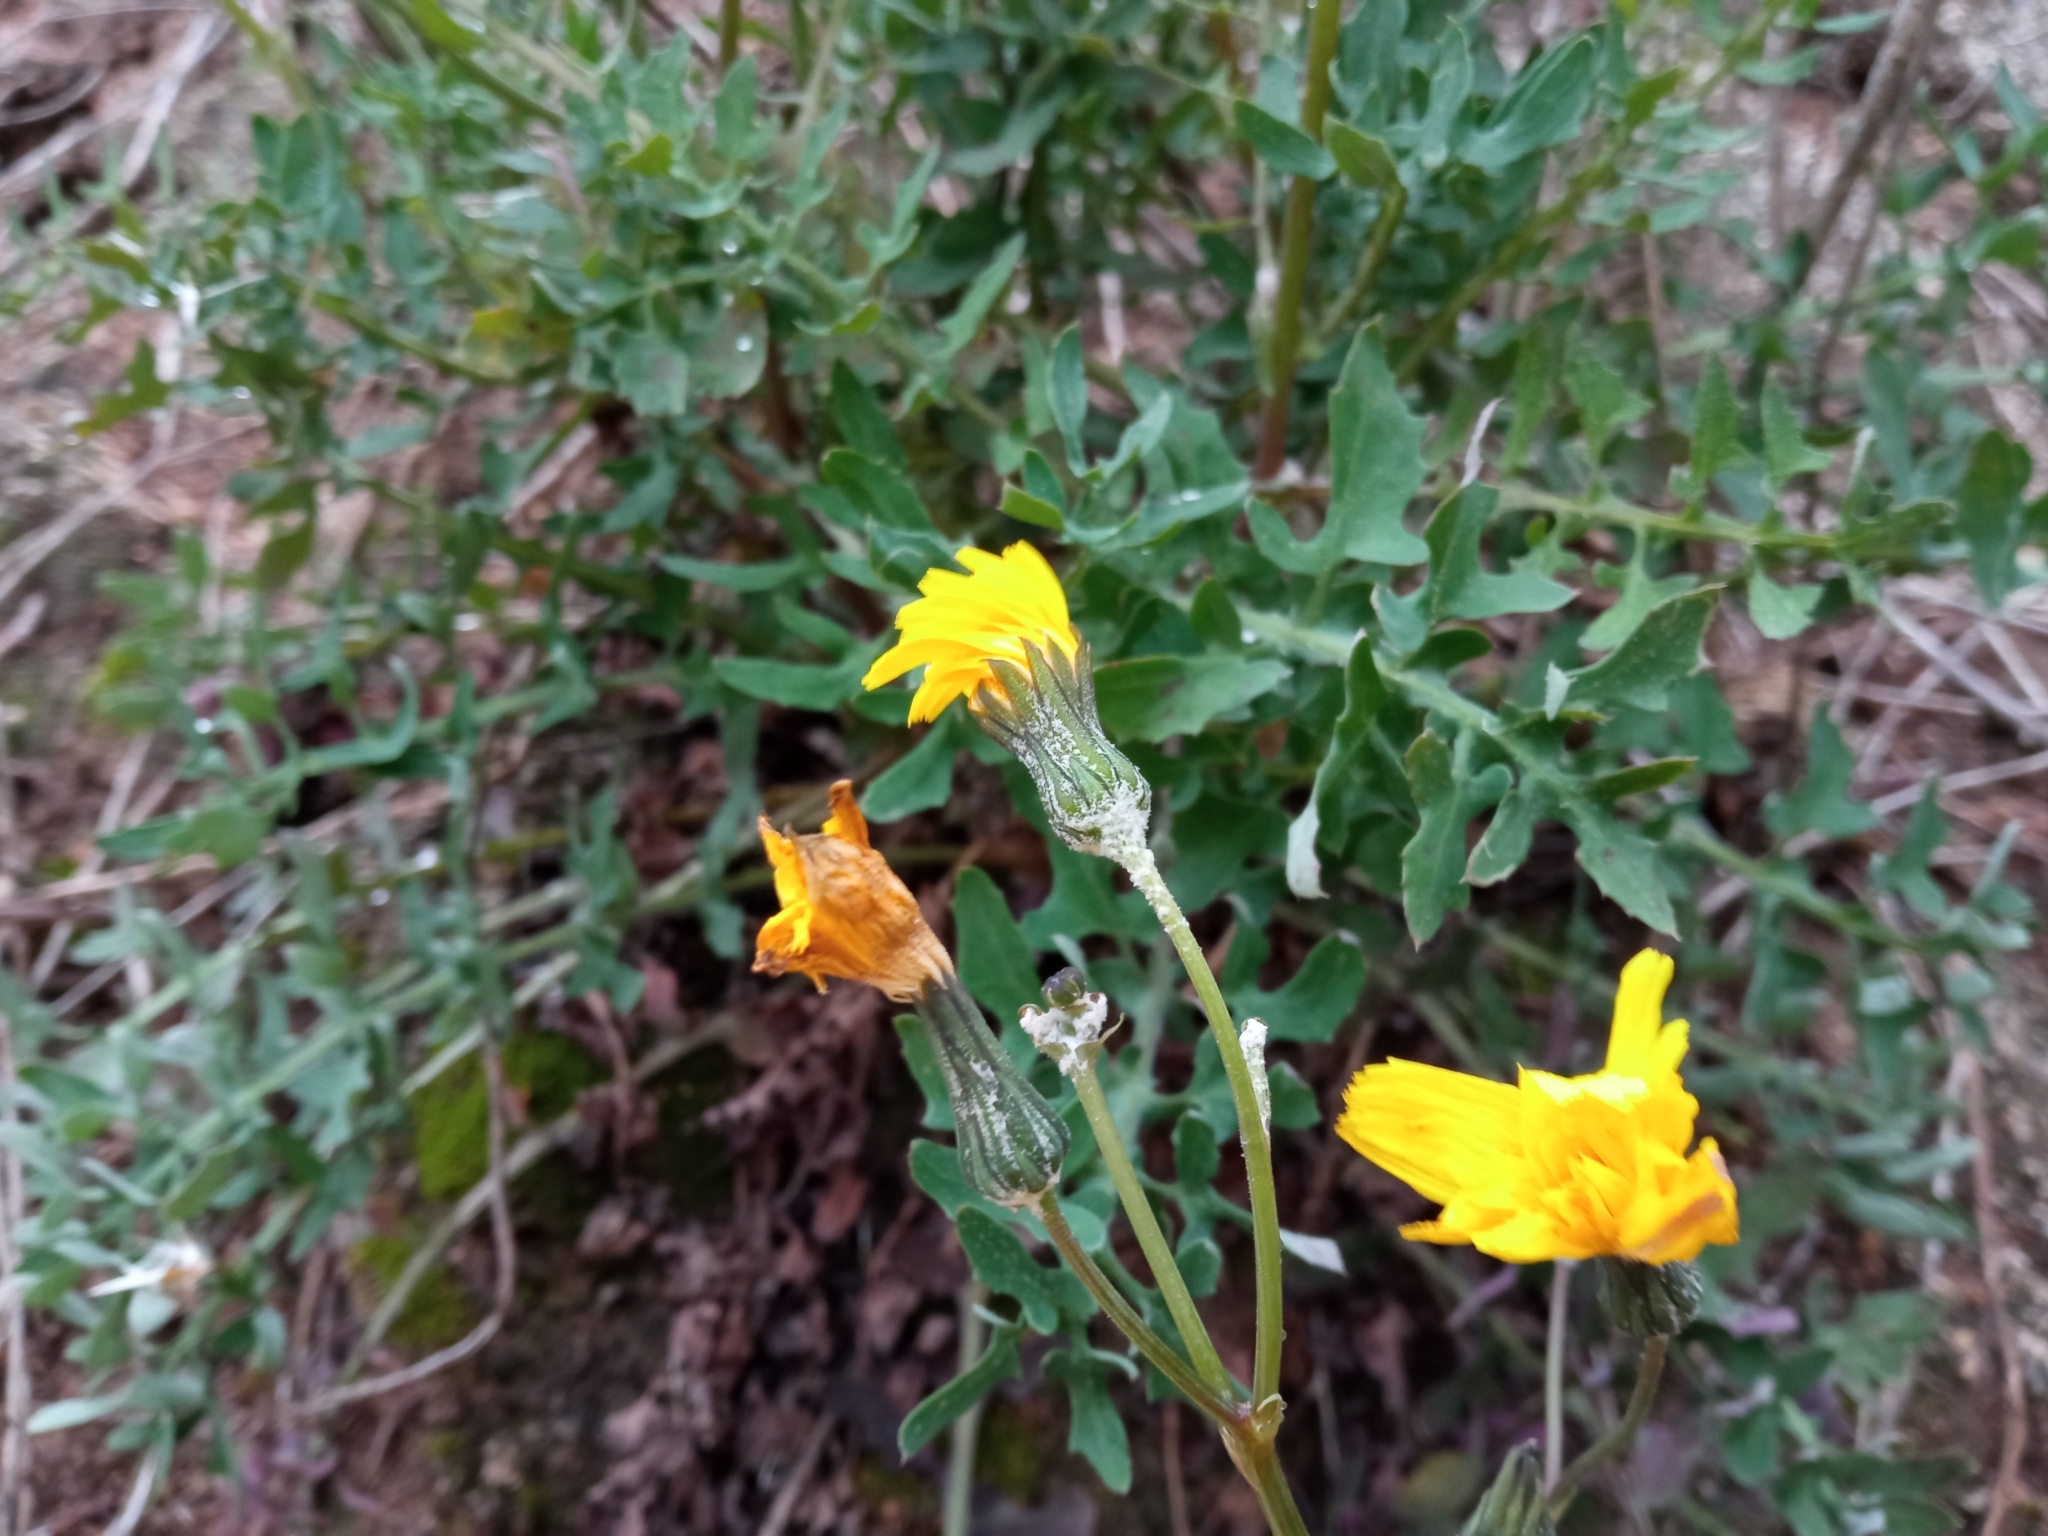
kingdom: Plantae
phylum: Tracheophyta
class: Magnoliopsida
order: Asterales
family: Asteraceae
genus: Sonchus
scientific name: Sonchus tenerrimus
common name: Clammy sowthistle
